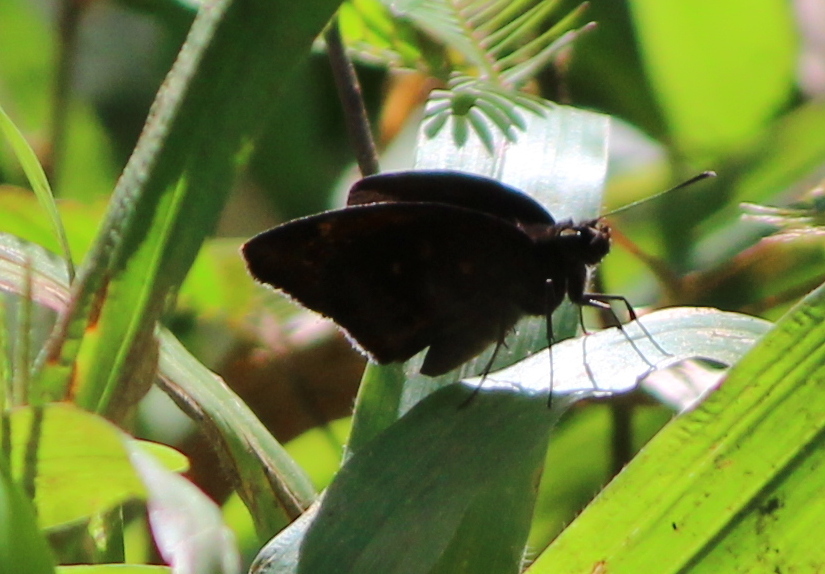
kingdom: Animalia
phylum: Arthropoda
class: Insecta
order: Lepidoptera
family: Hesperiidae
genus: Psolos
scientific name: Psolos fuligo
